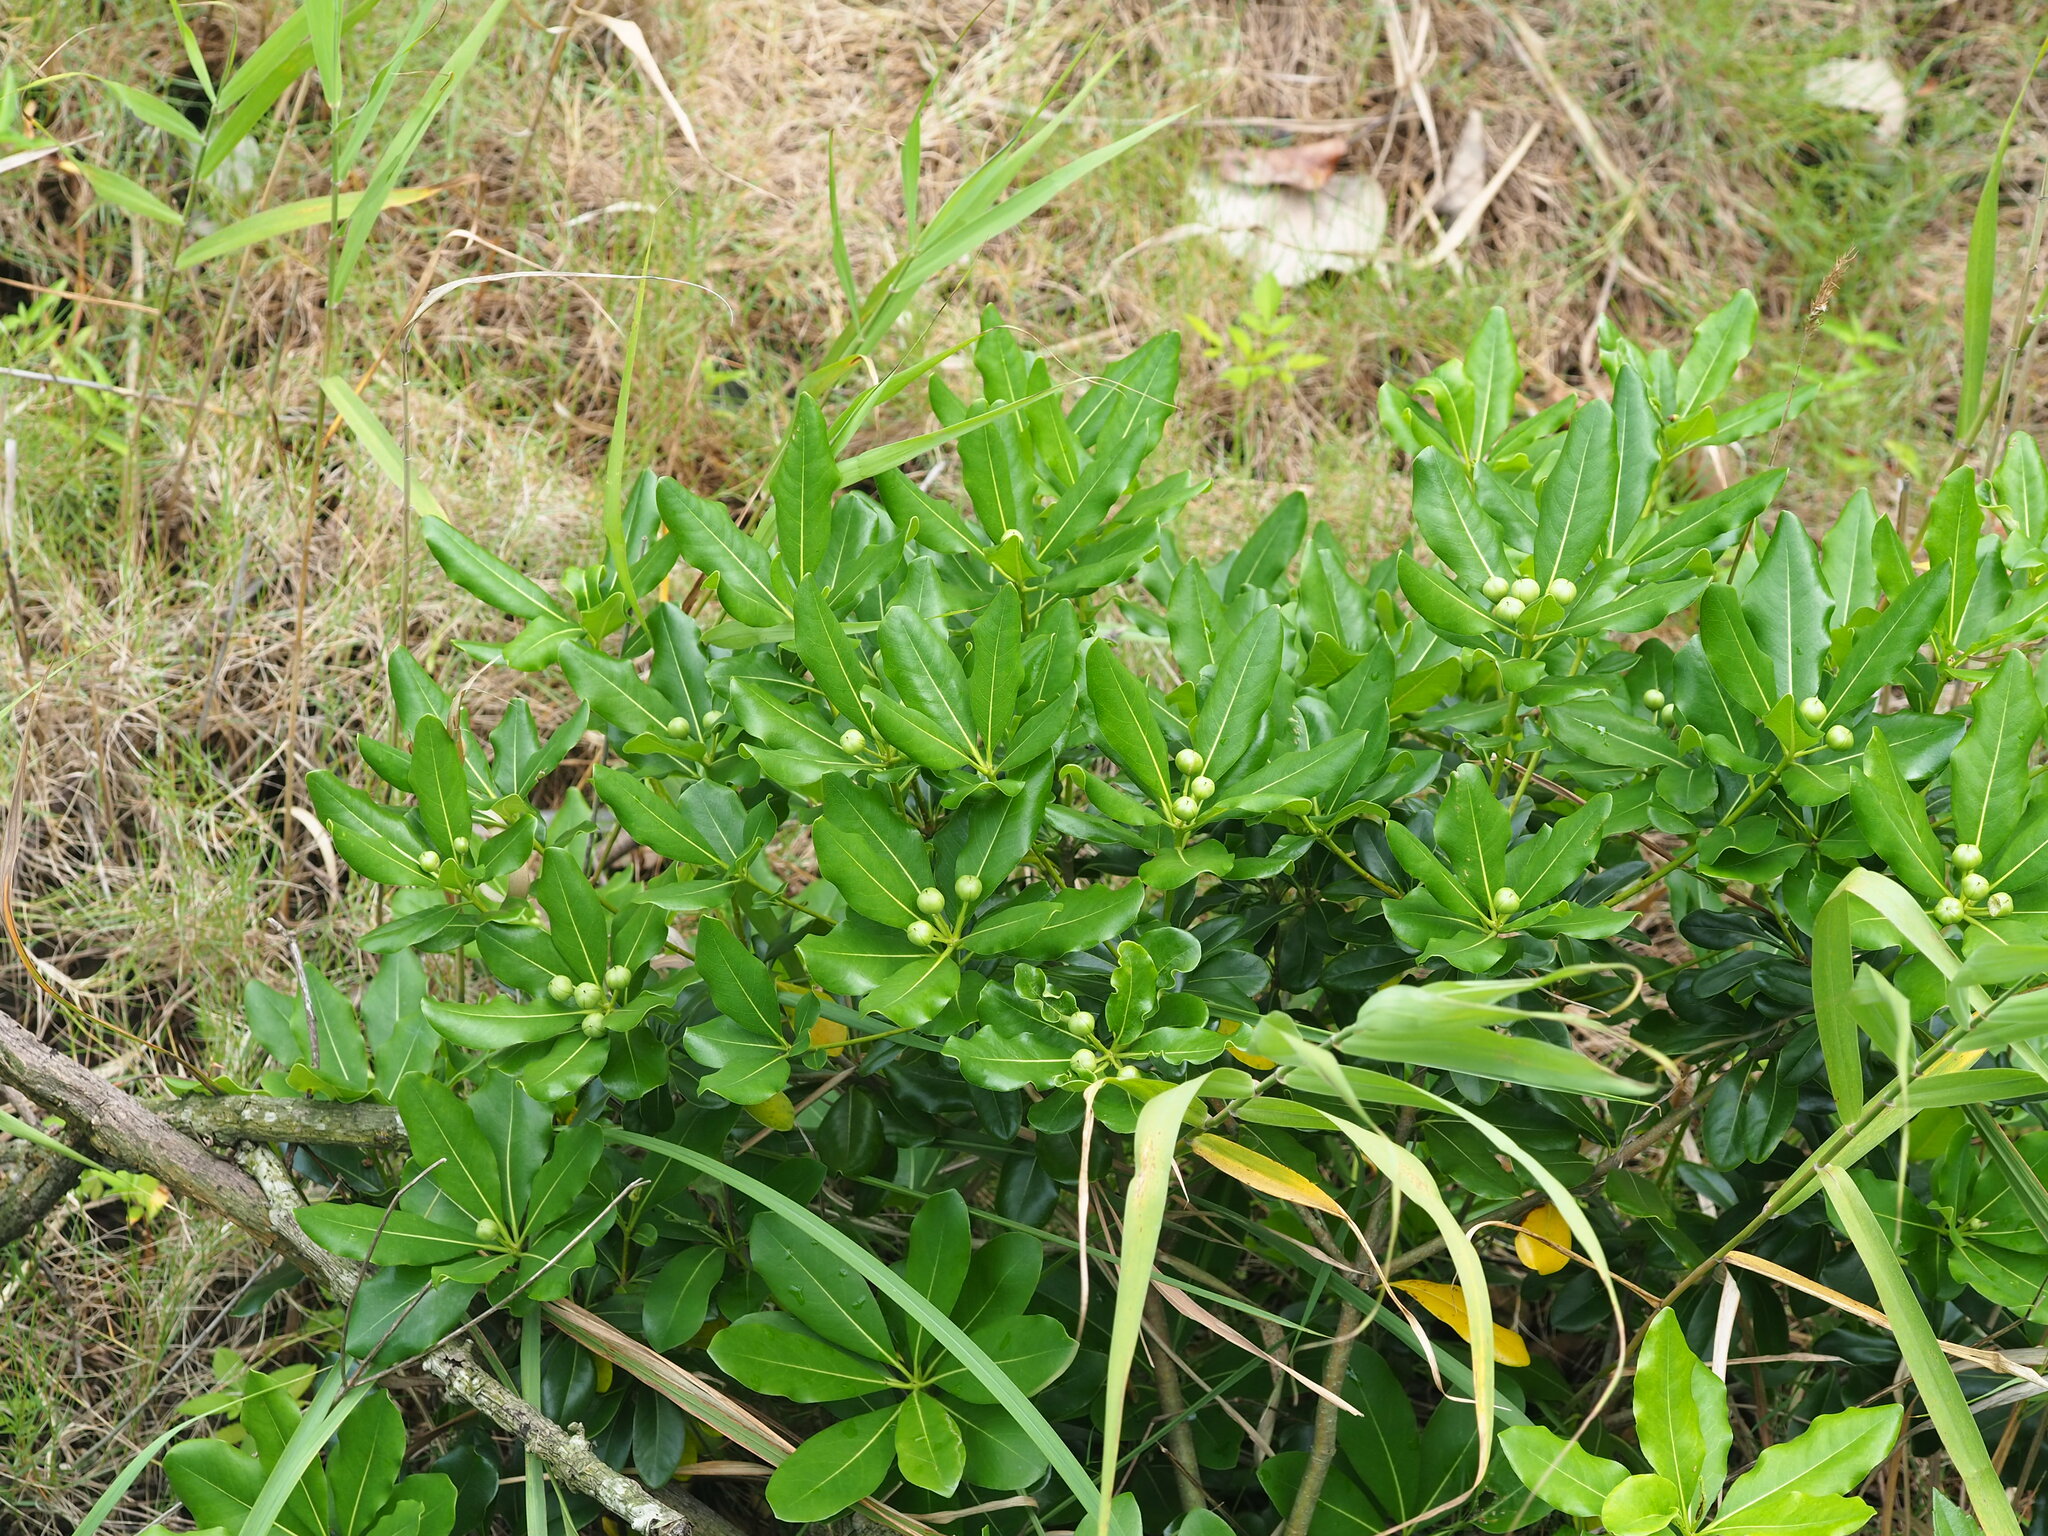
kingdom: Plantae
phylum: Tracheophyta
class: Magnoliopsida
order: Apiales
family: Pittosporaceae
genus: Pittosporum
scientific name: Pittosporum tobira
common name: Japanese cheesewood
